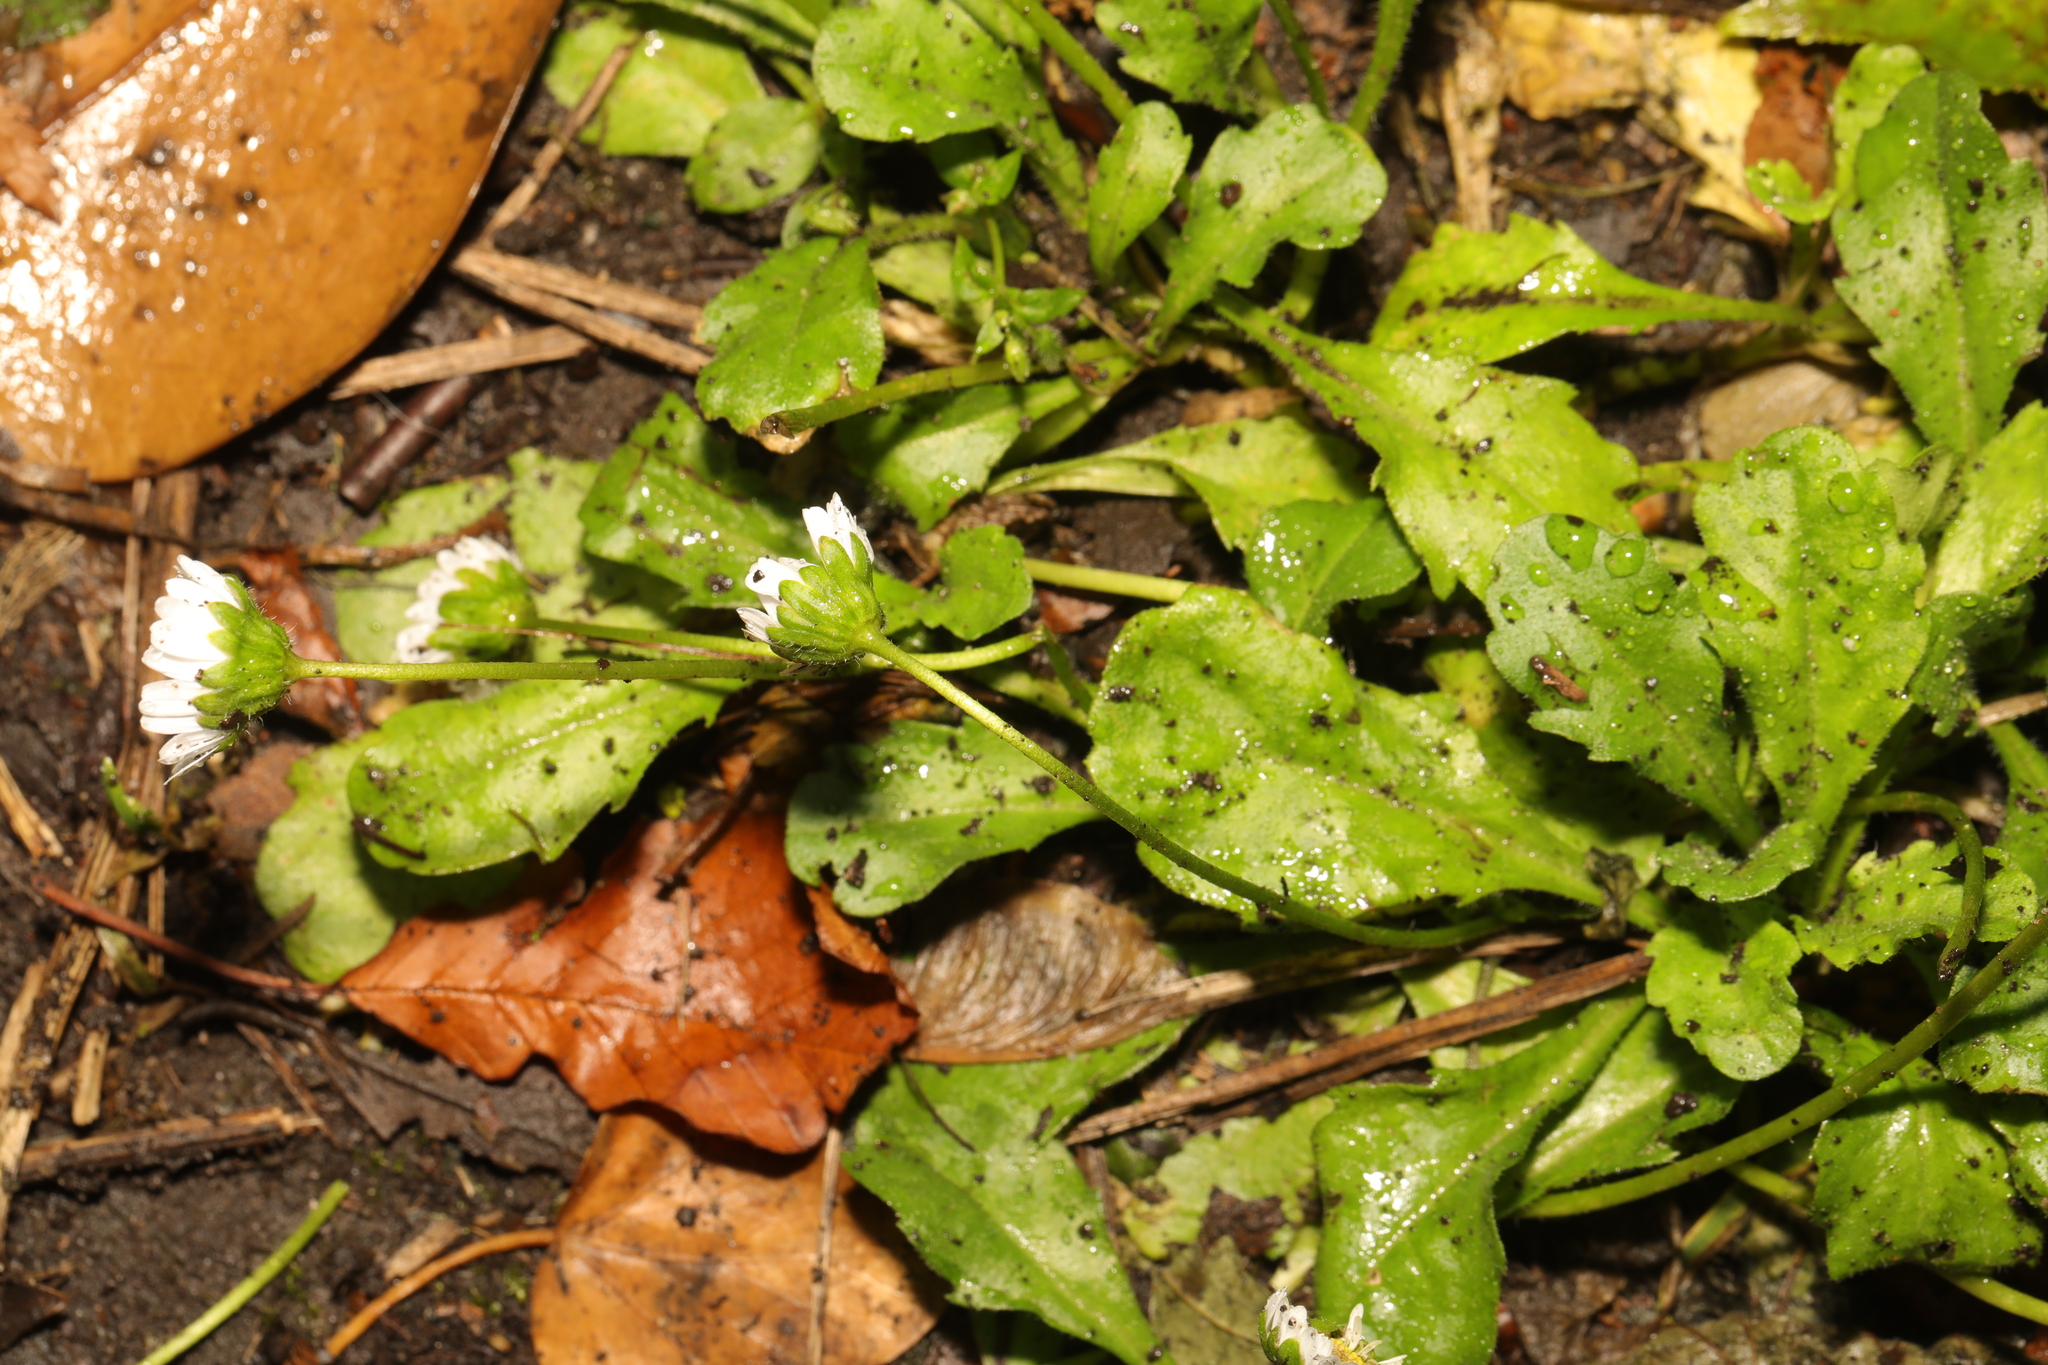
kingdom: Plantae
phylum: Tracheophyta
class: Magnoliopsida
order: Asterales
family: Asteraceae
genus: Bellis
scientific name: Bellis perennis
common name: Lawndaisy
